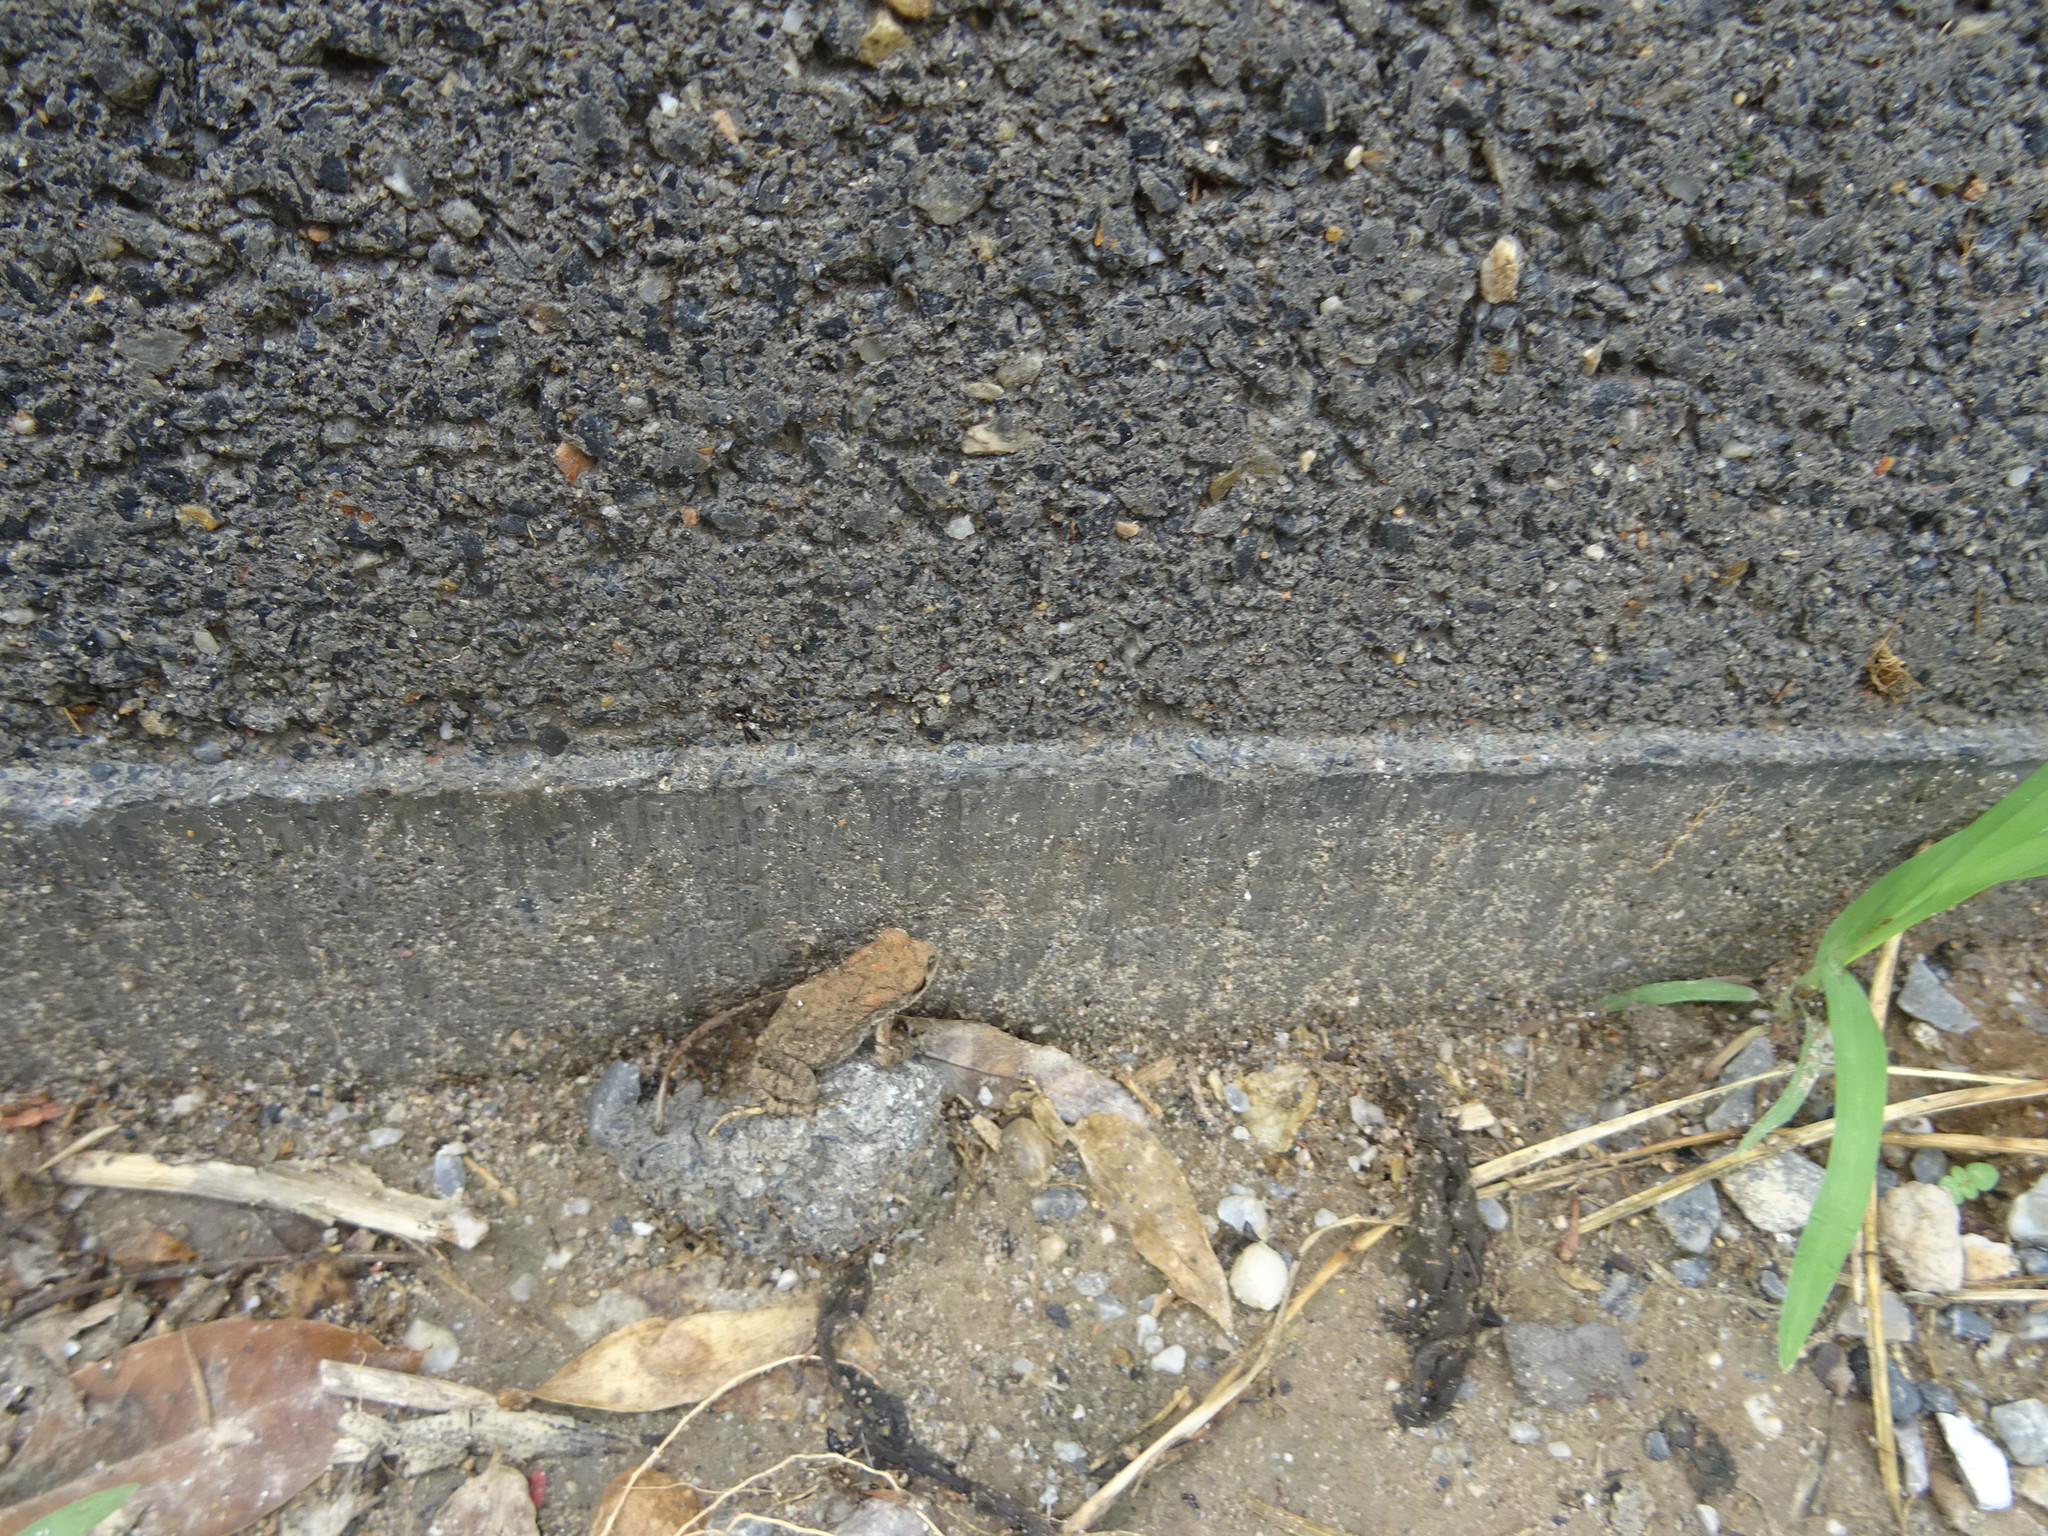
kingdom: Animalia
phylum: Chordata
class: Amphibia
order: Anura
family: Bufonidae
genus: Bufo
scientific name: Bufo gargarizans
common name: Asiatic toad
